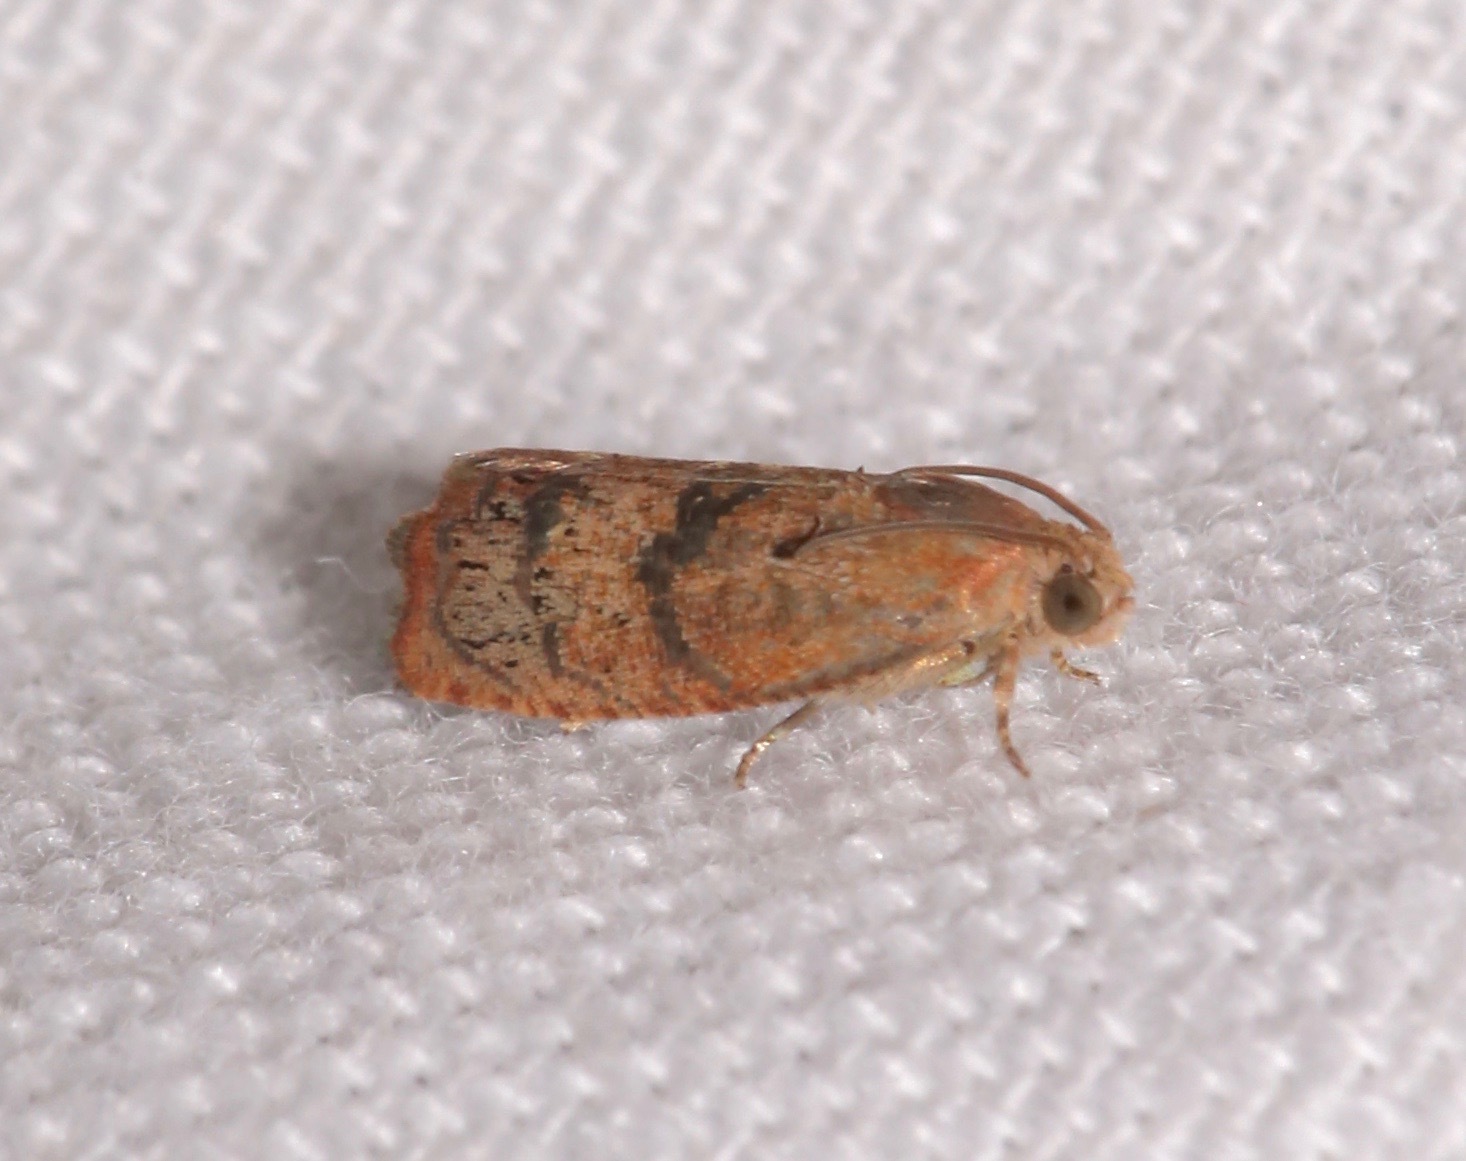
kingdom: Animalia
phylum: Arthropoda
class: Insecta
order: Lepidoptera
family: Tortricidae
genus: Cydia
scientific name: Cydia latiferreana
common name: Filbertworm moth
